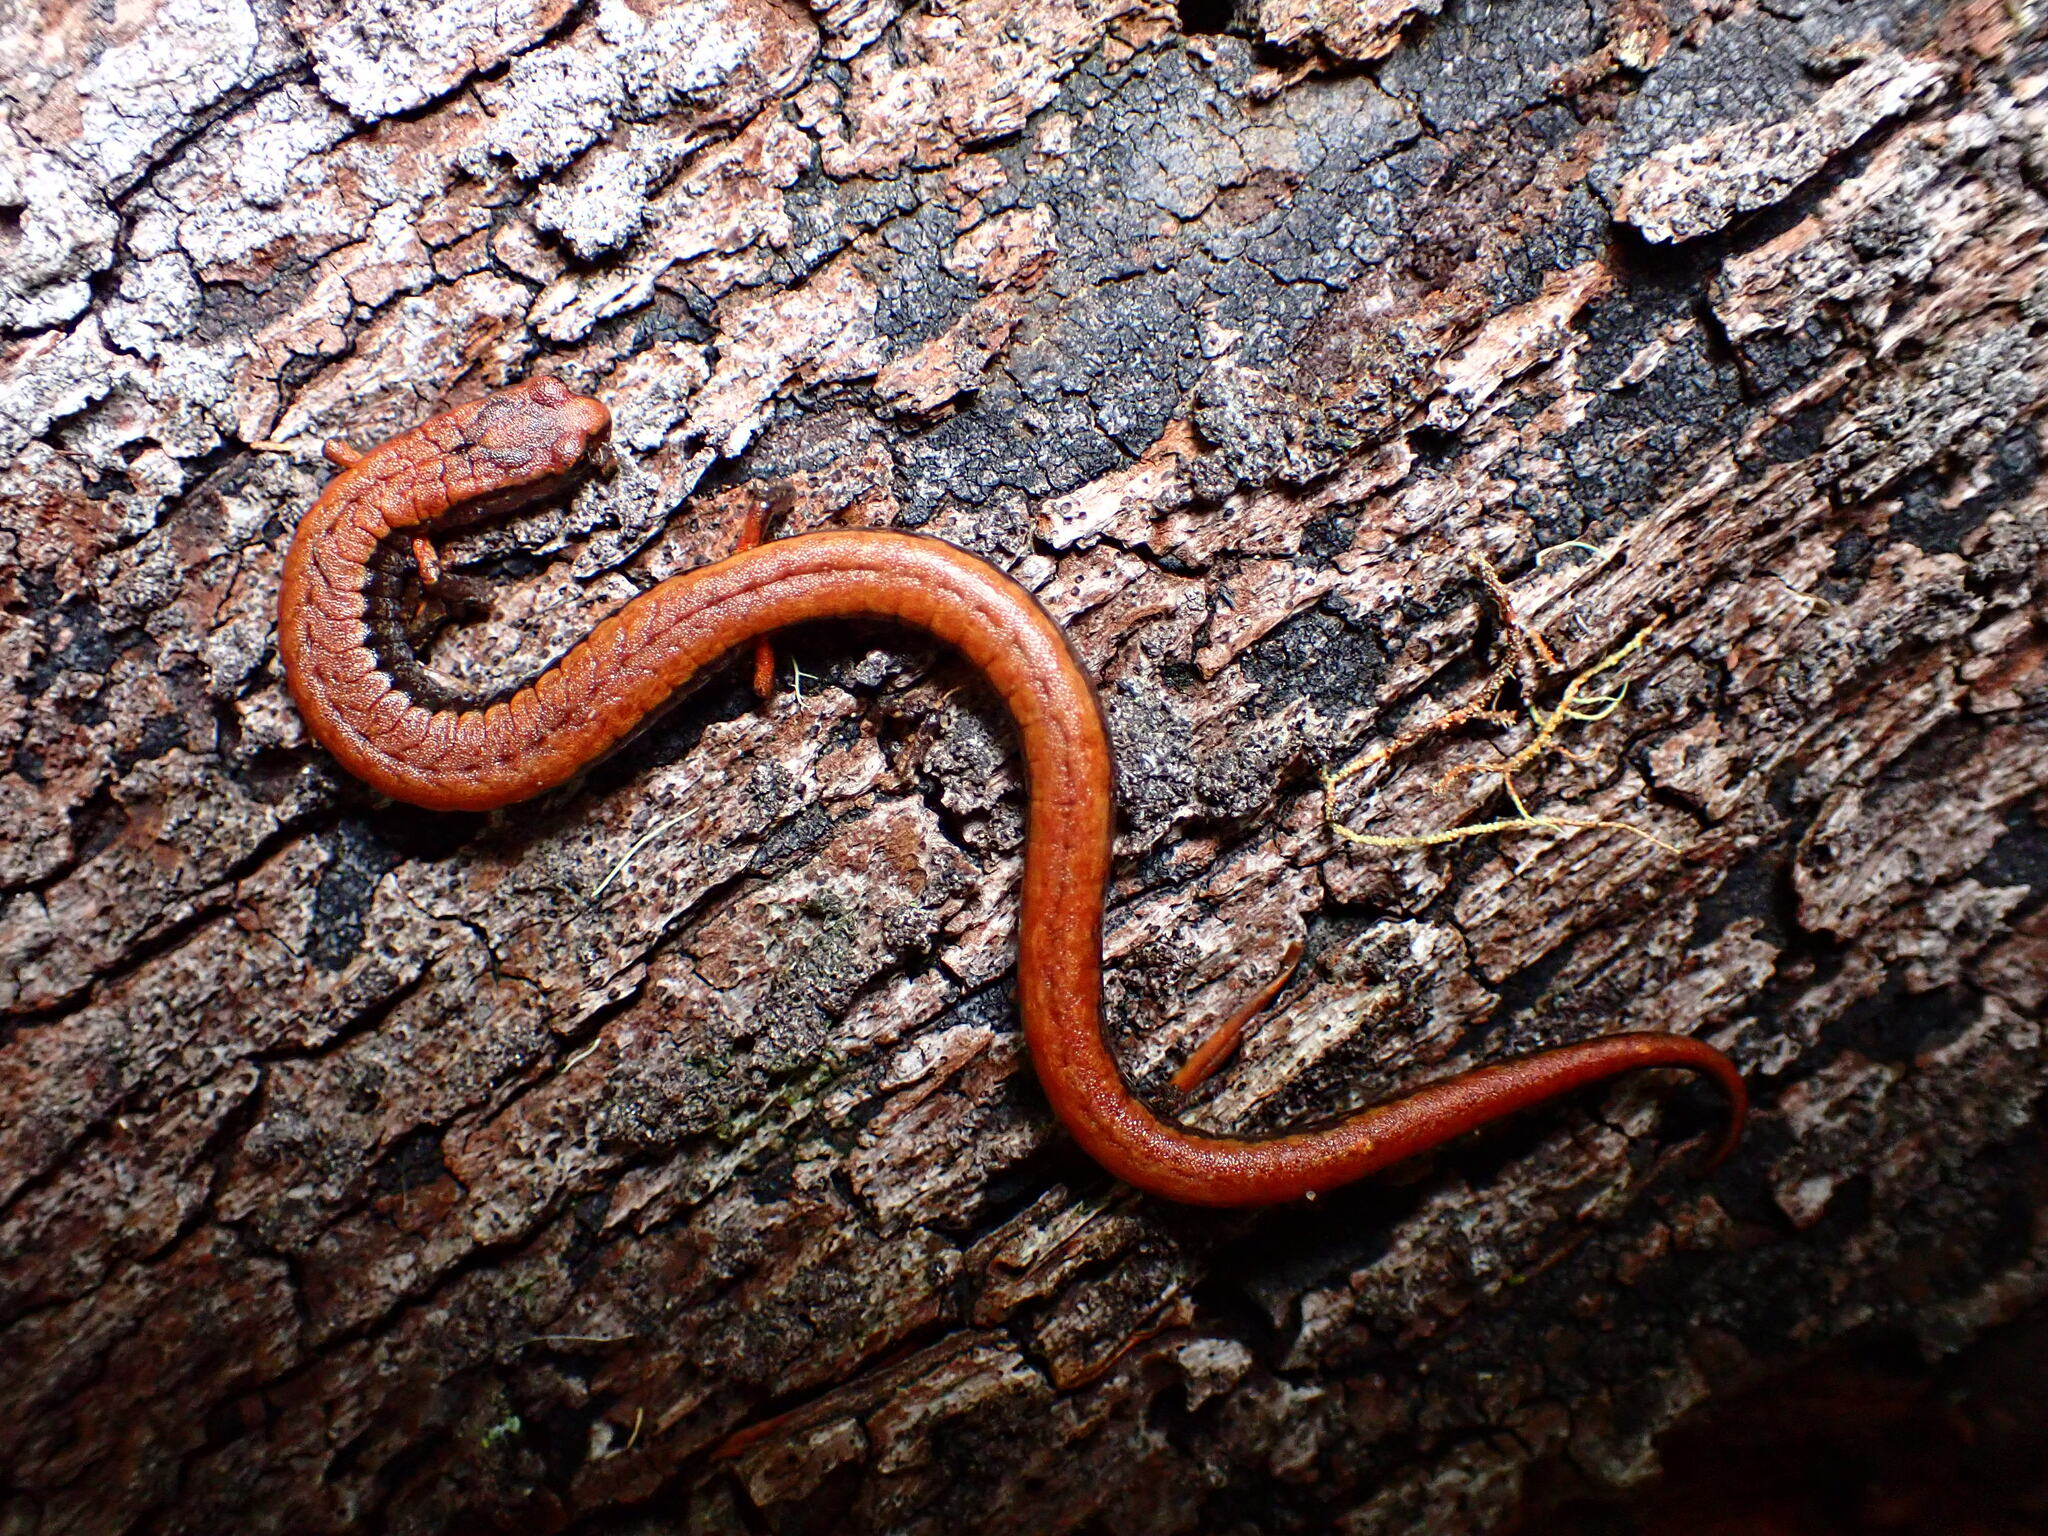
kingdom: Animalia
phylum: Chordata
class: Amphibia
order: Caudata
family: Plethodontidae
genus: Batrachoseps
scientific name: Batrachoseps attenuatus
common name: California slender salamander
